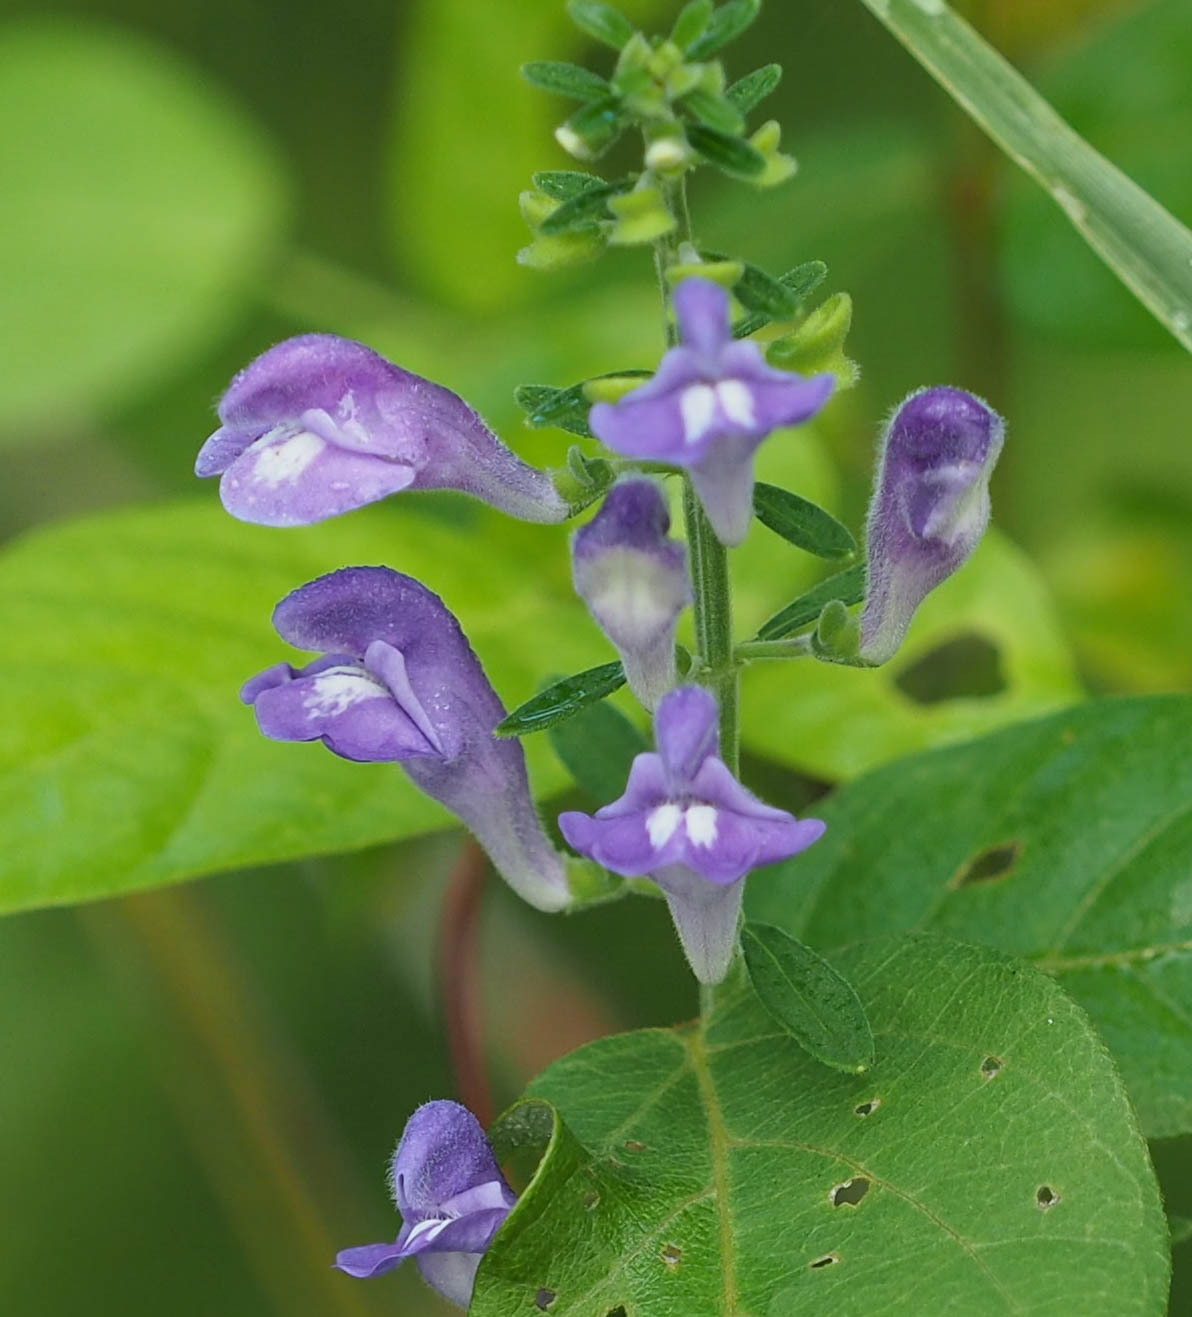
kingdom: Plantae
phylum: Tracheophyta
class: Magnoliopsida
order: Lamiales
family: Lamiaceae
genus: Scutellaria
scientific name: Scutellaria integrifolia
